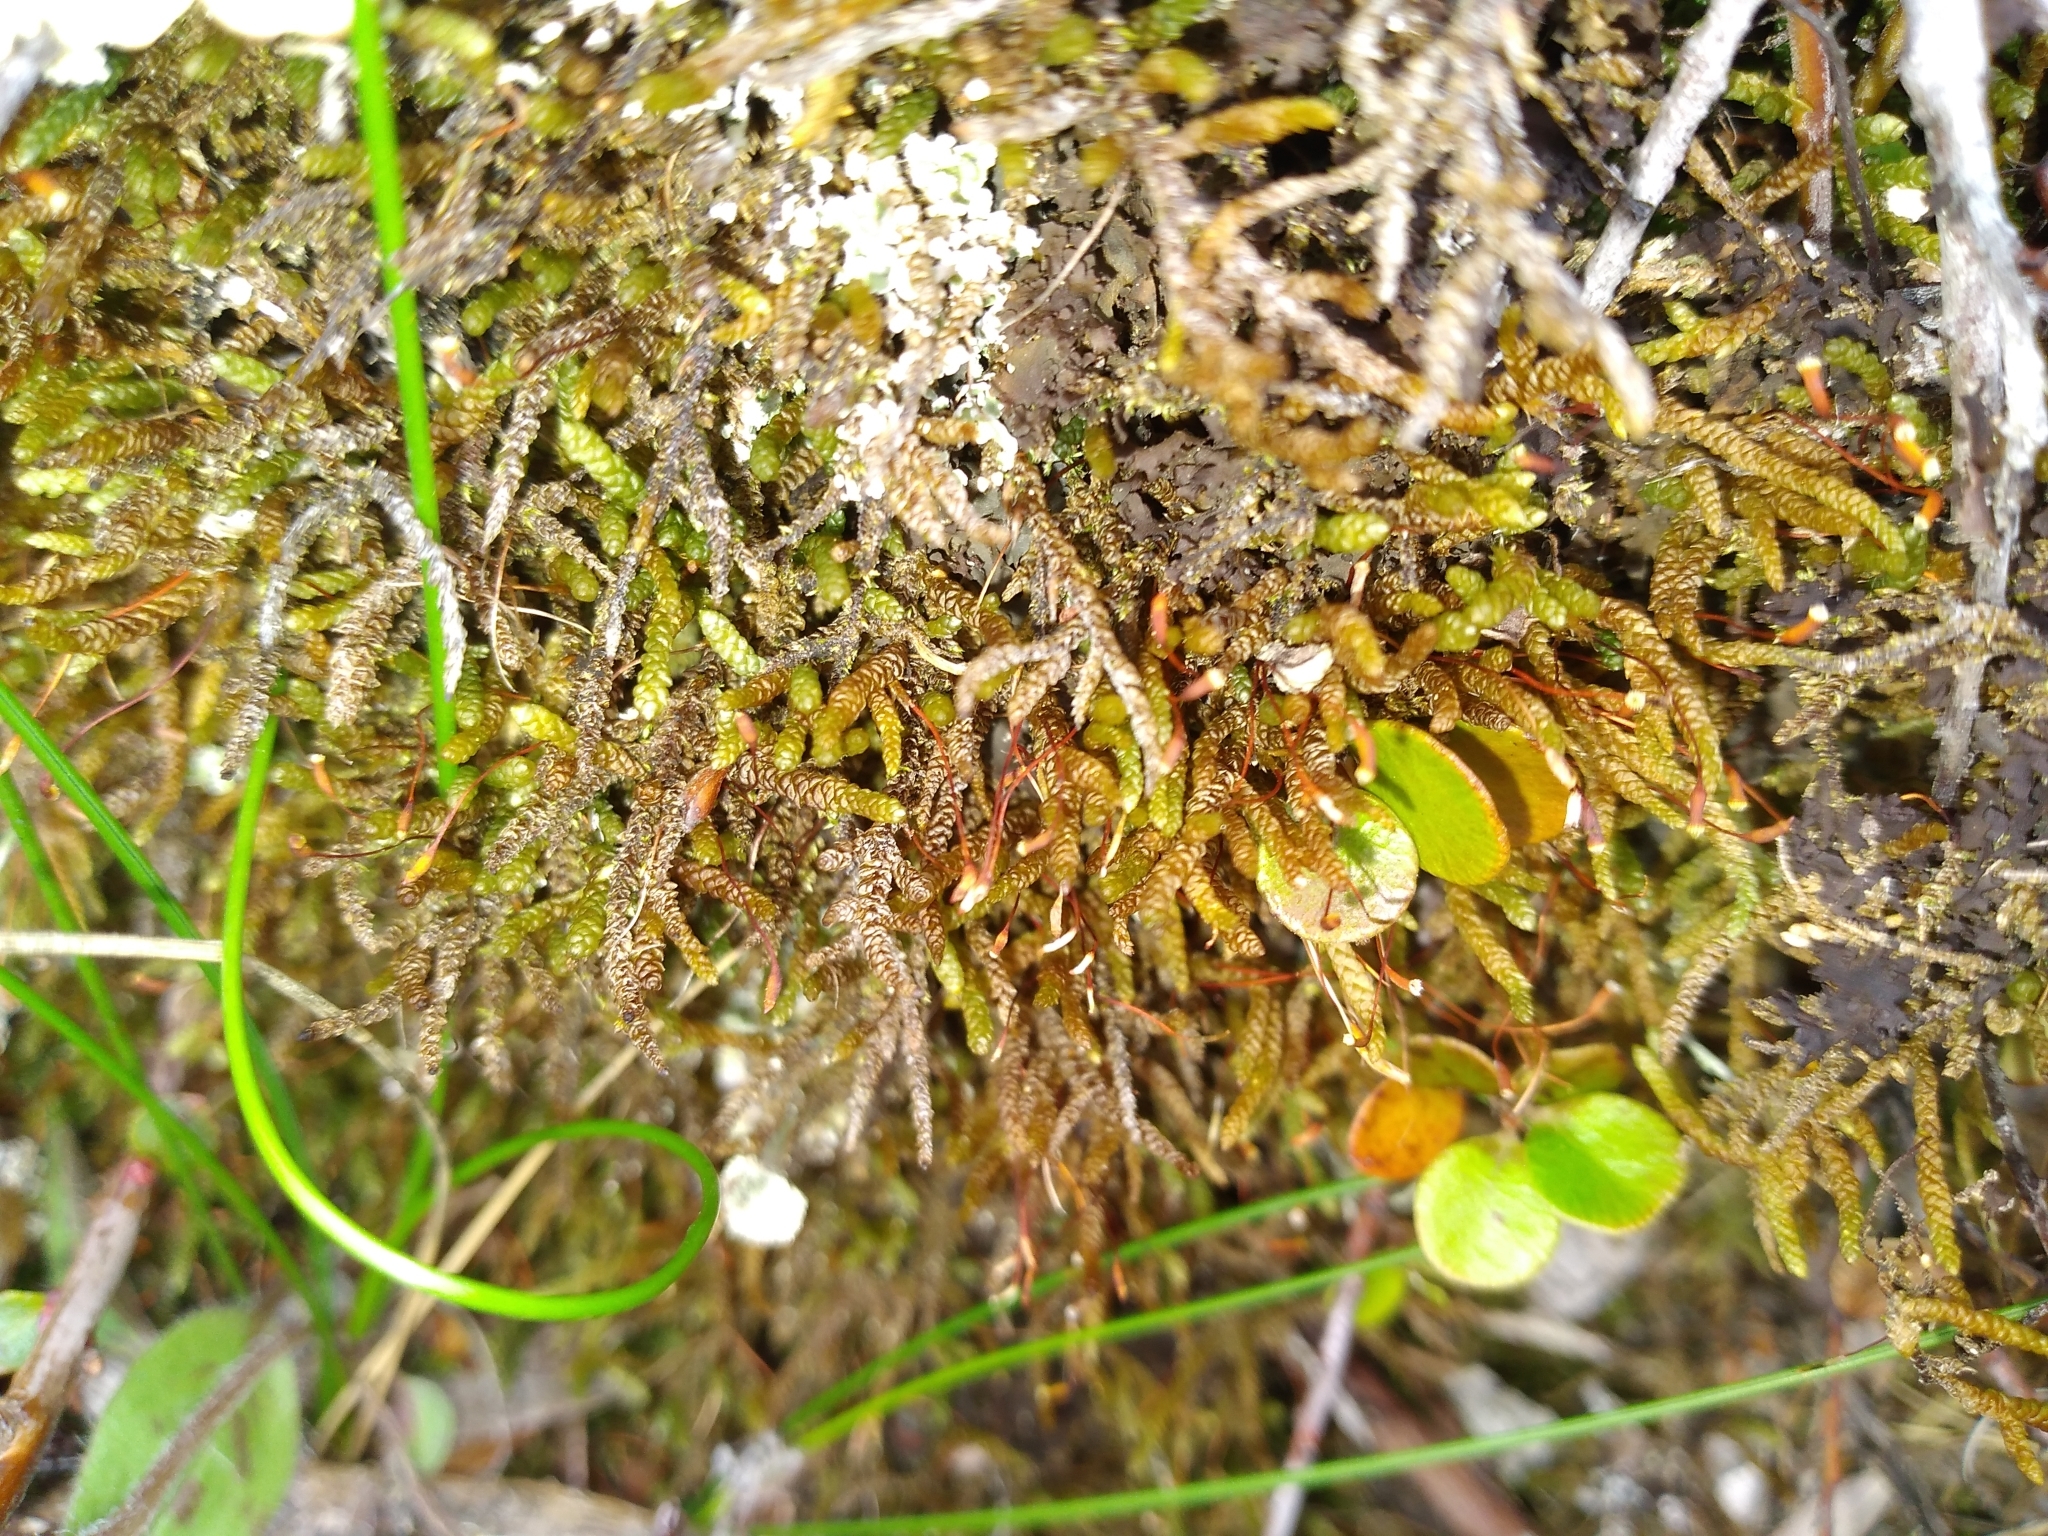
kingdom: Plantae
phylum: Bryophyta
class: Bryopsida
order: Hypnales
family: Lembophyllaceae
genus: Lembophyllum
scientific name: Lembophyllum divulsum
